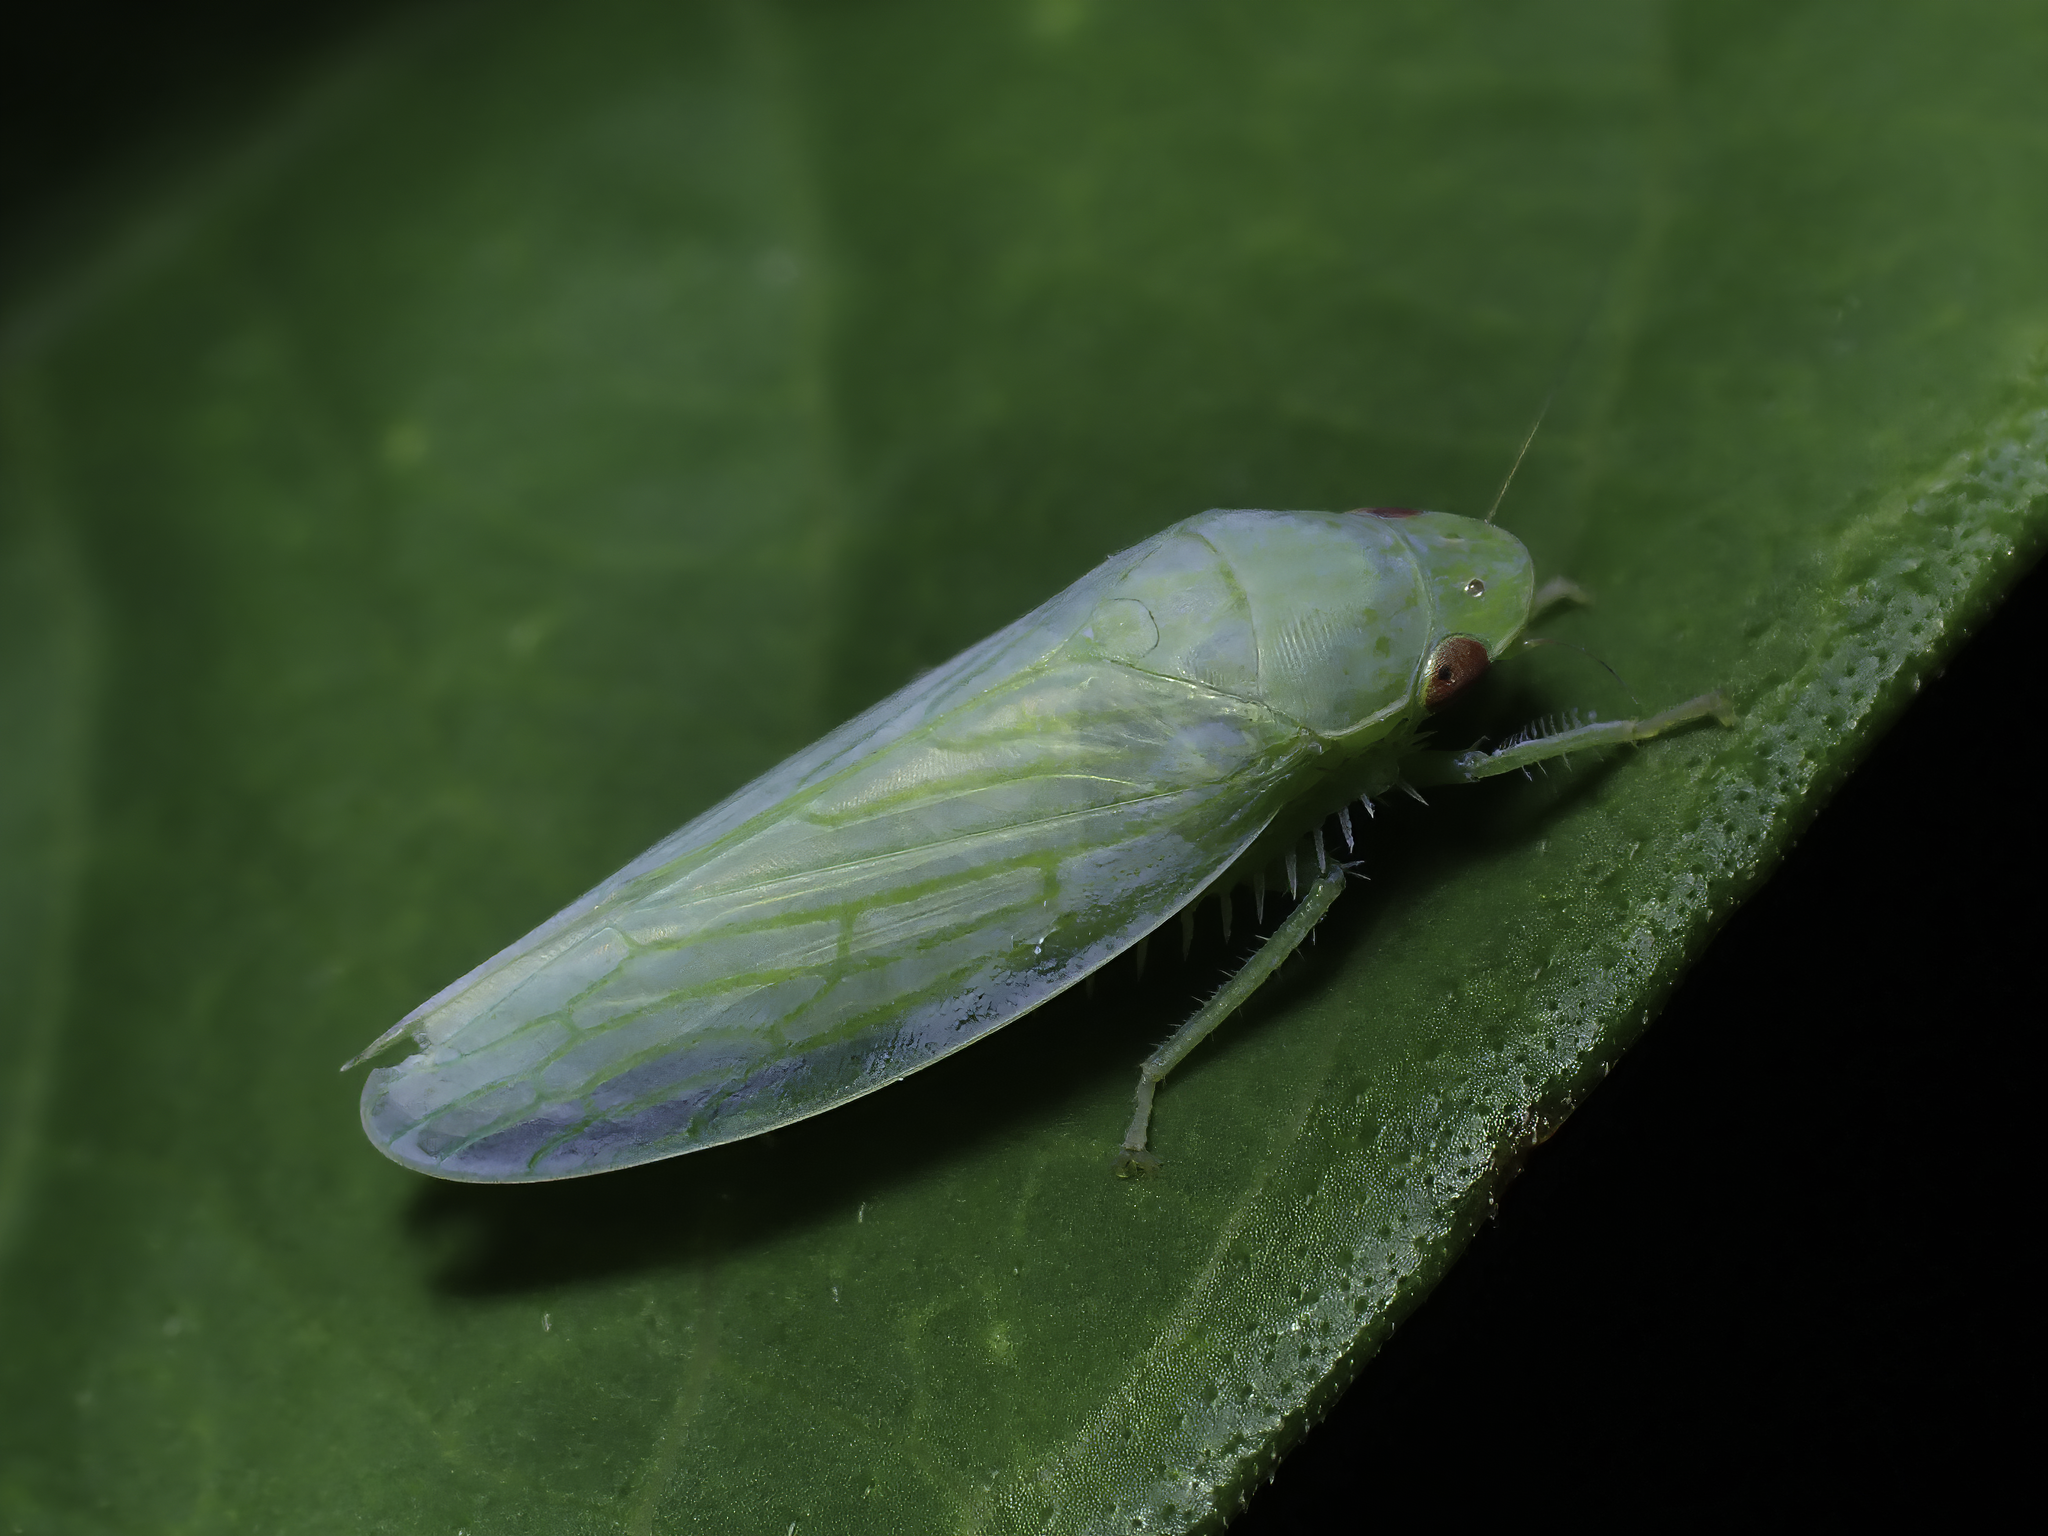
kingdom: Animalia
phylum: Arthropoda
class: Insecta
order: Hemiptera
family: Cicadellidae
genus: Gyponana
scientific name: Gyponana tenella
